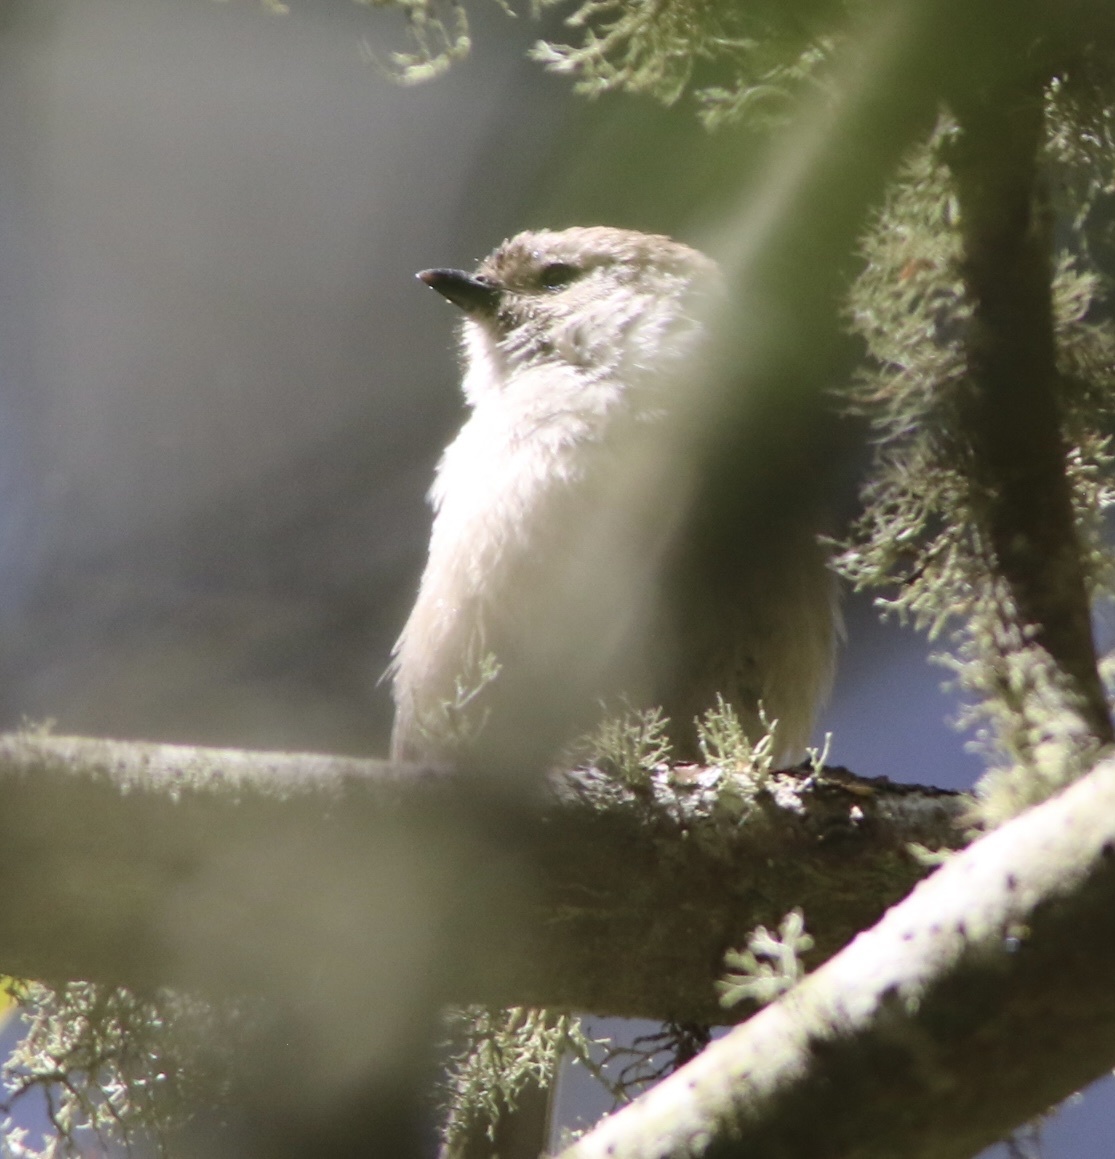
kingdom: Animalia
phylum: Chordata
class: Aves
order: Passeriformes
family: Aegithalidae
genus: Psaltriparus
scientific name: Psaltriparus minimus
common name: American bushtit
